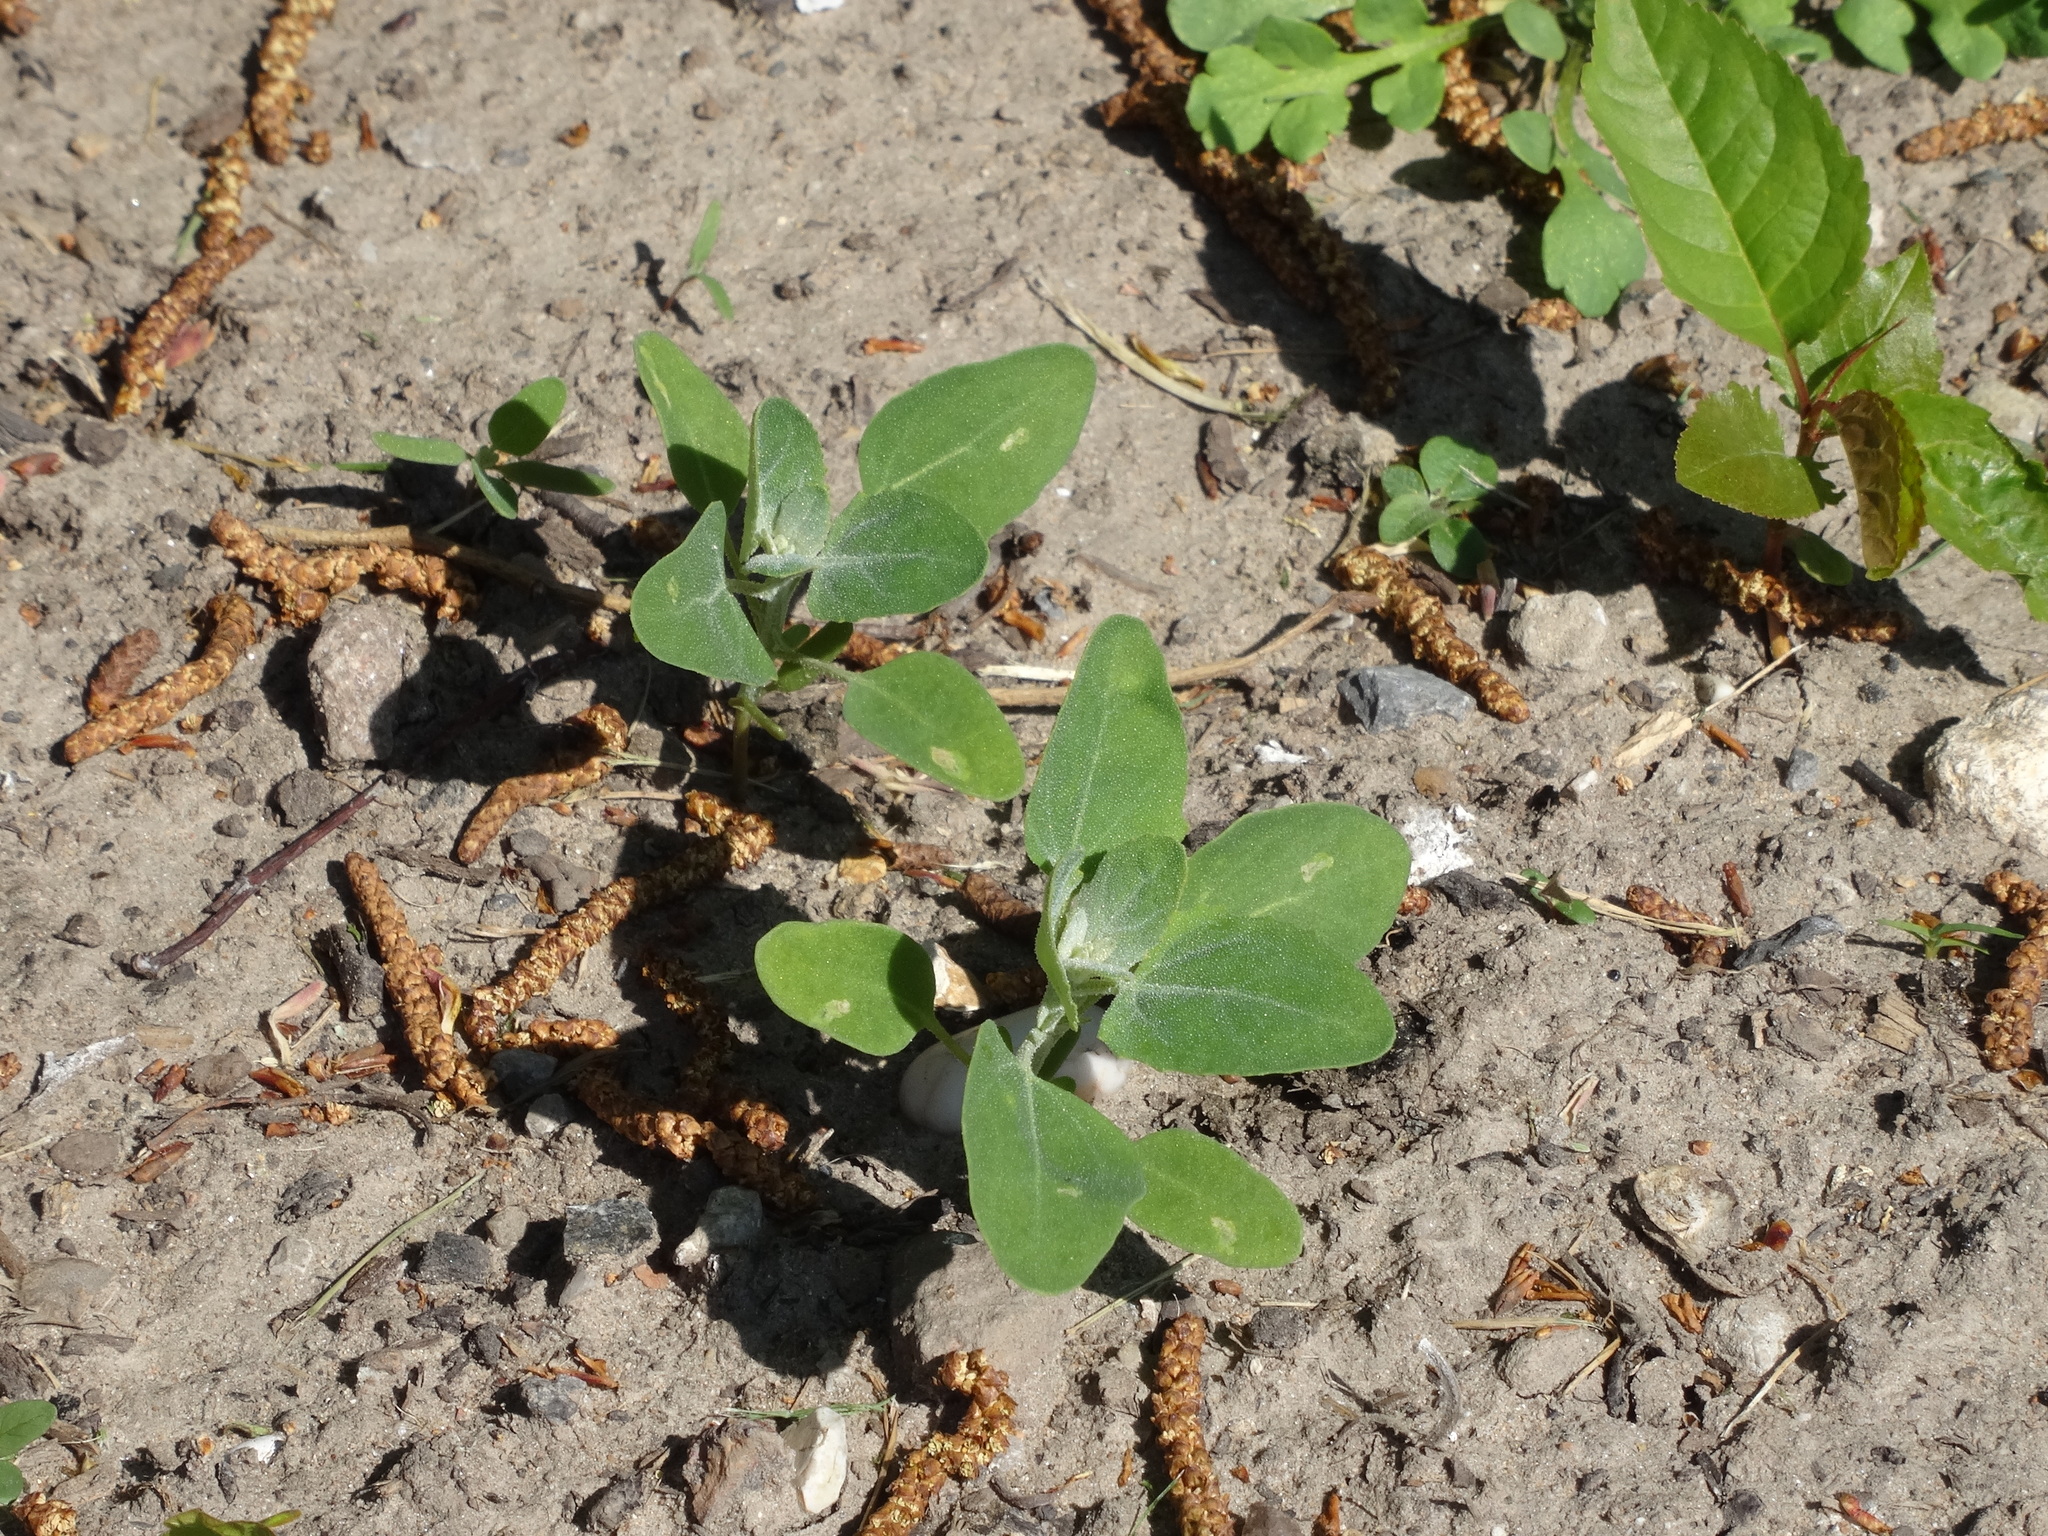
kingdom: Plantae
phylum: Tracheophyta
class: Magnoliopsida
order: Caryophyllales
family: Amaranthaceae
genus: Chenopodium
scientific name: Chenopodium album
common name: Fat-hen
